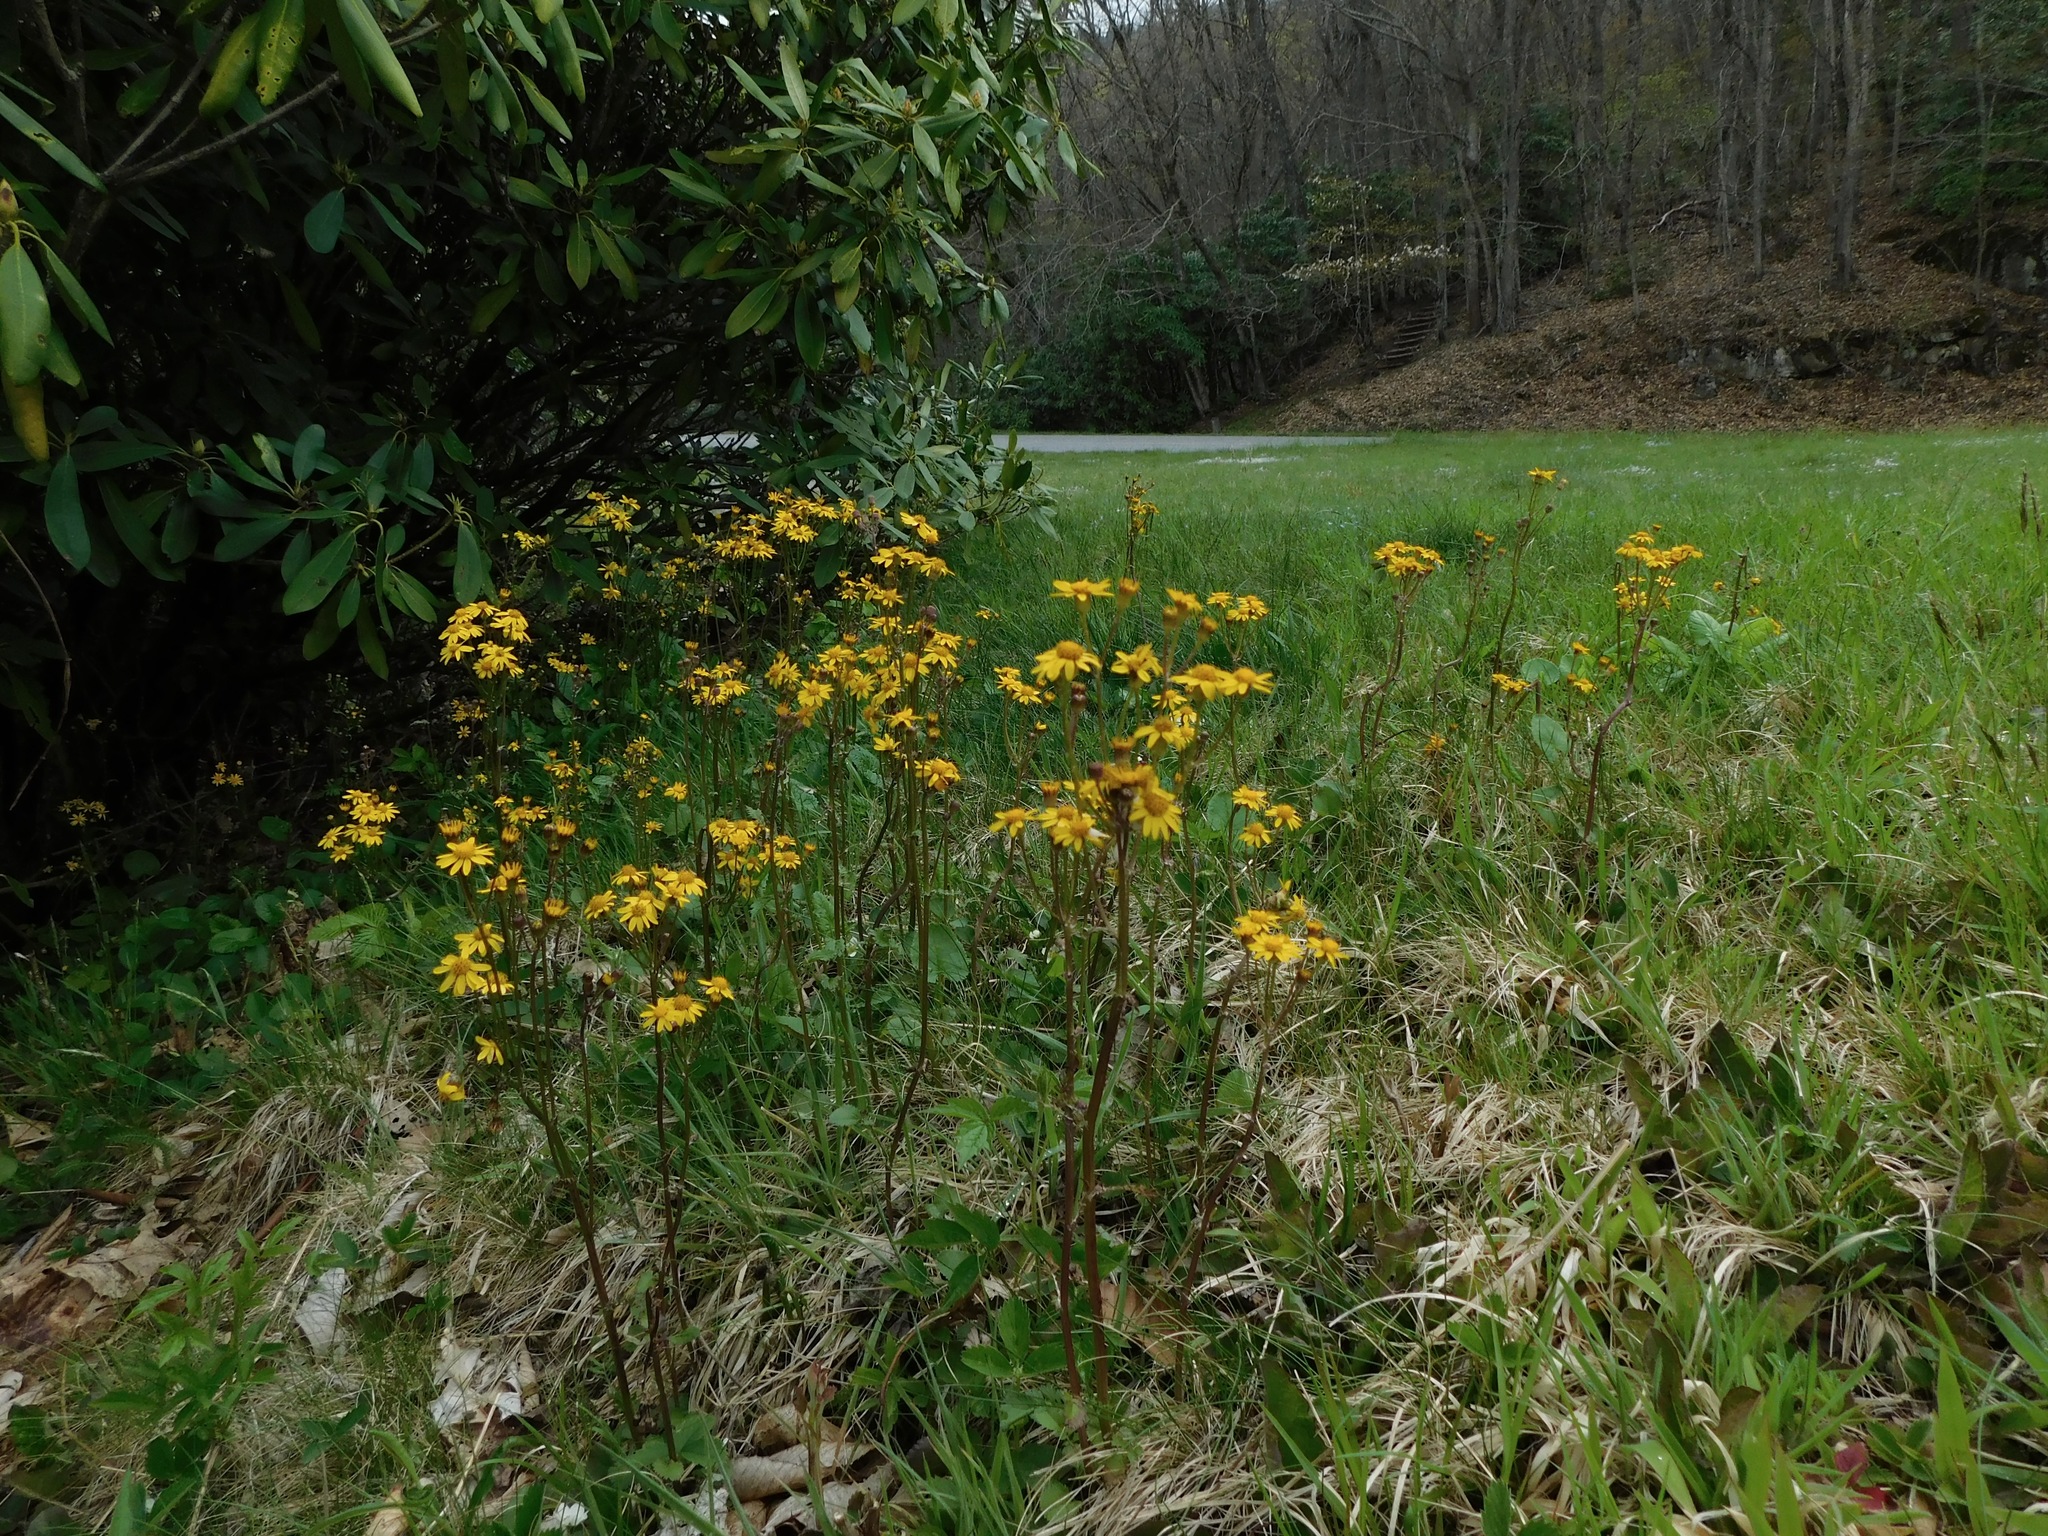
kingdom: Plantae
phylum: Tracheophyta
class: Magnoliopsida
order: Asterales
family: Asteraceae
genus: Packera
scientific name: Packera aurea
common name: Golden groundsel
